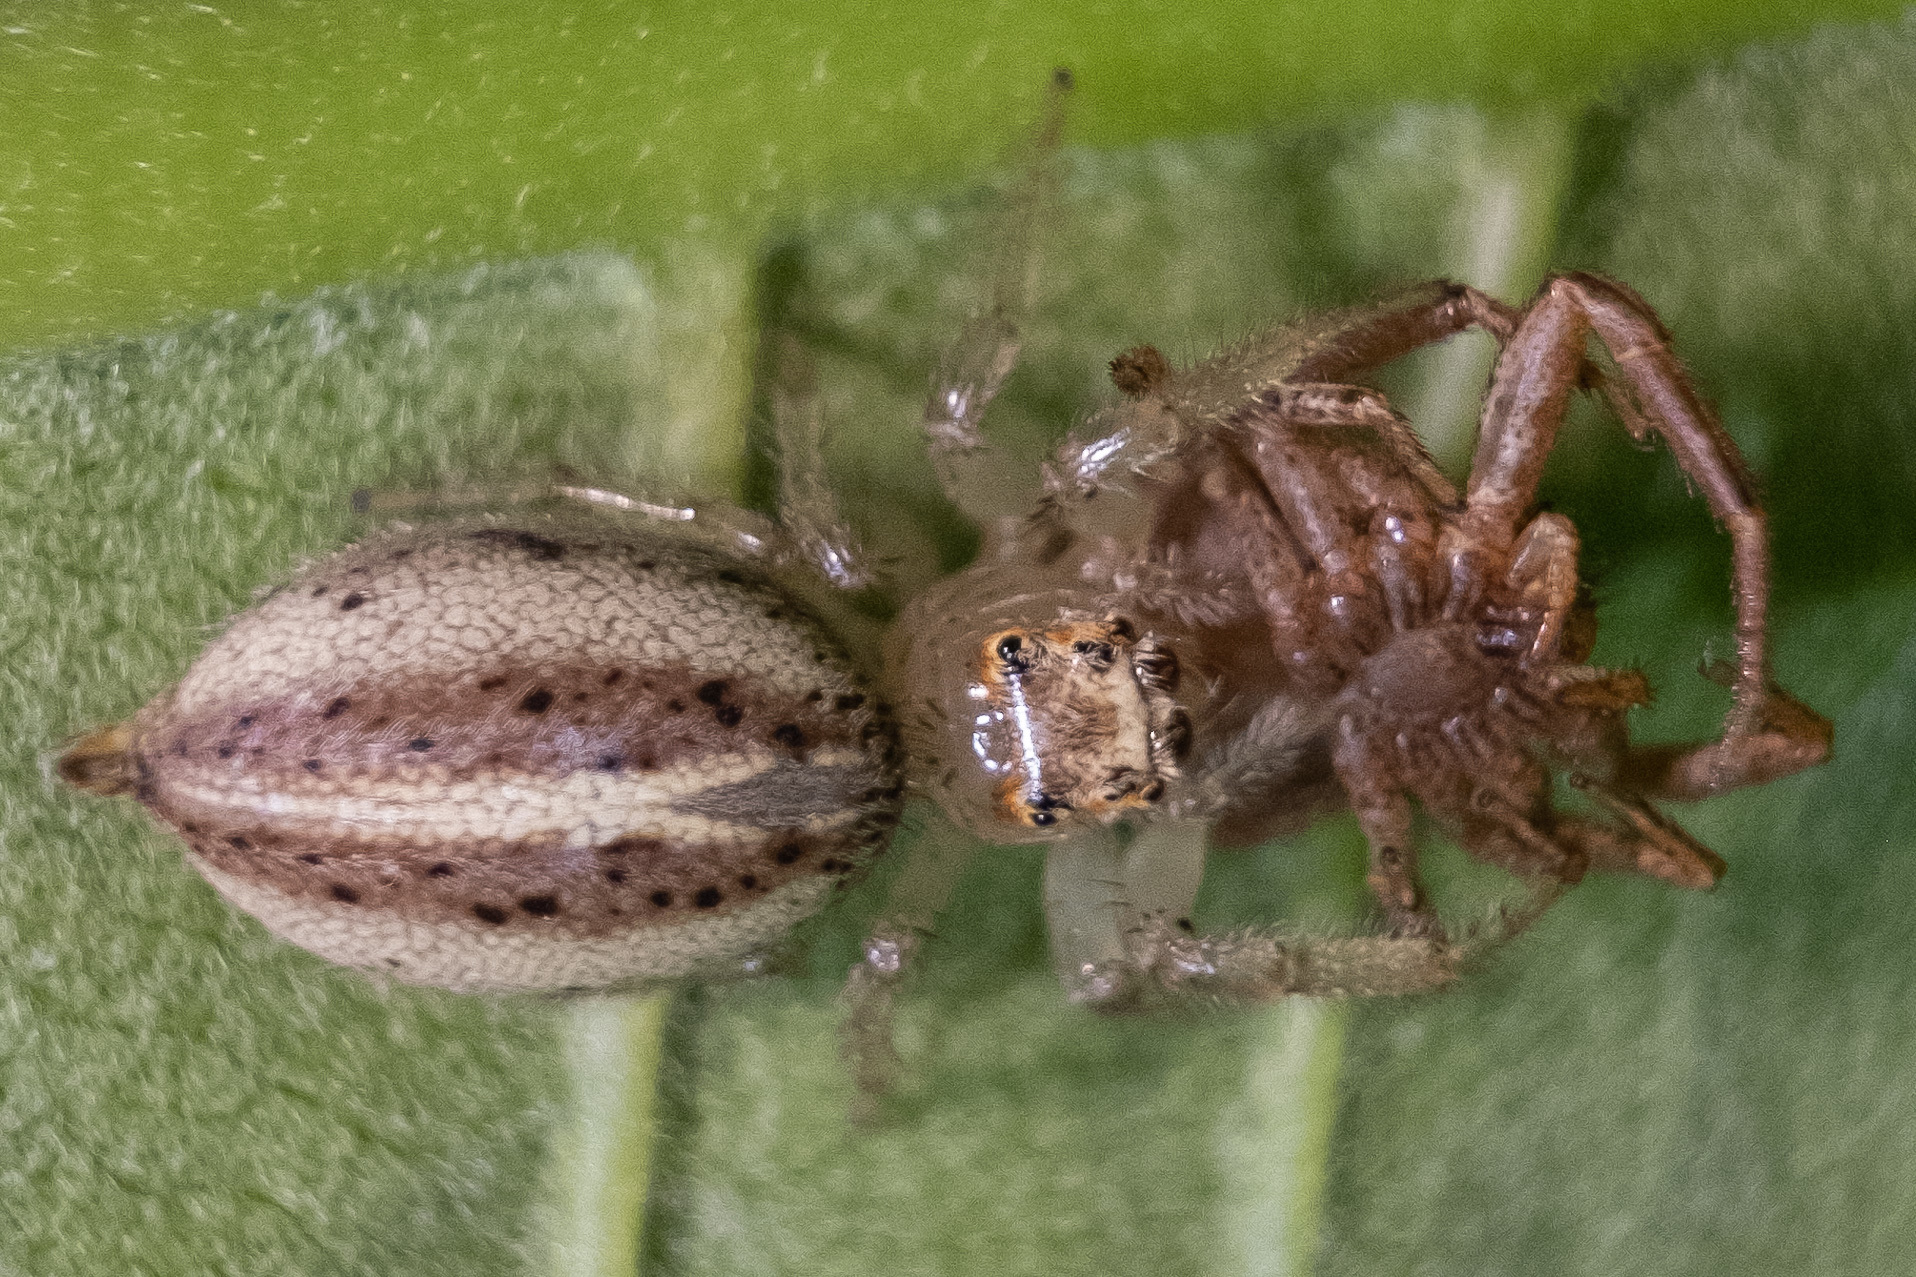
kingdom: Animalia
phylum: Arthropoda
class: Arachnida
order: Araneae
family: Salticidae
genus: Colonus
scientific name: Colonus sylvanus
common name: Jumping spiders
